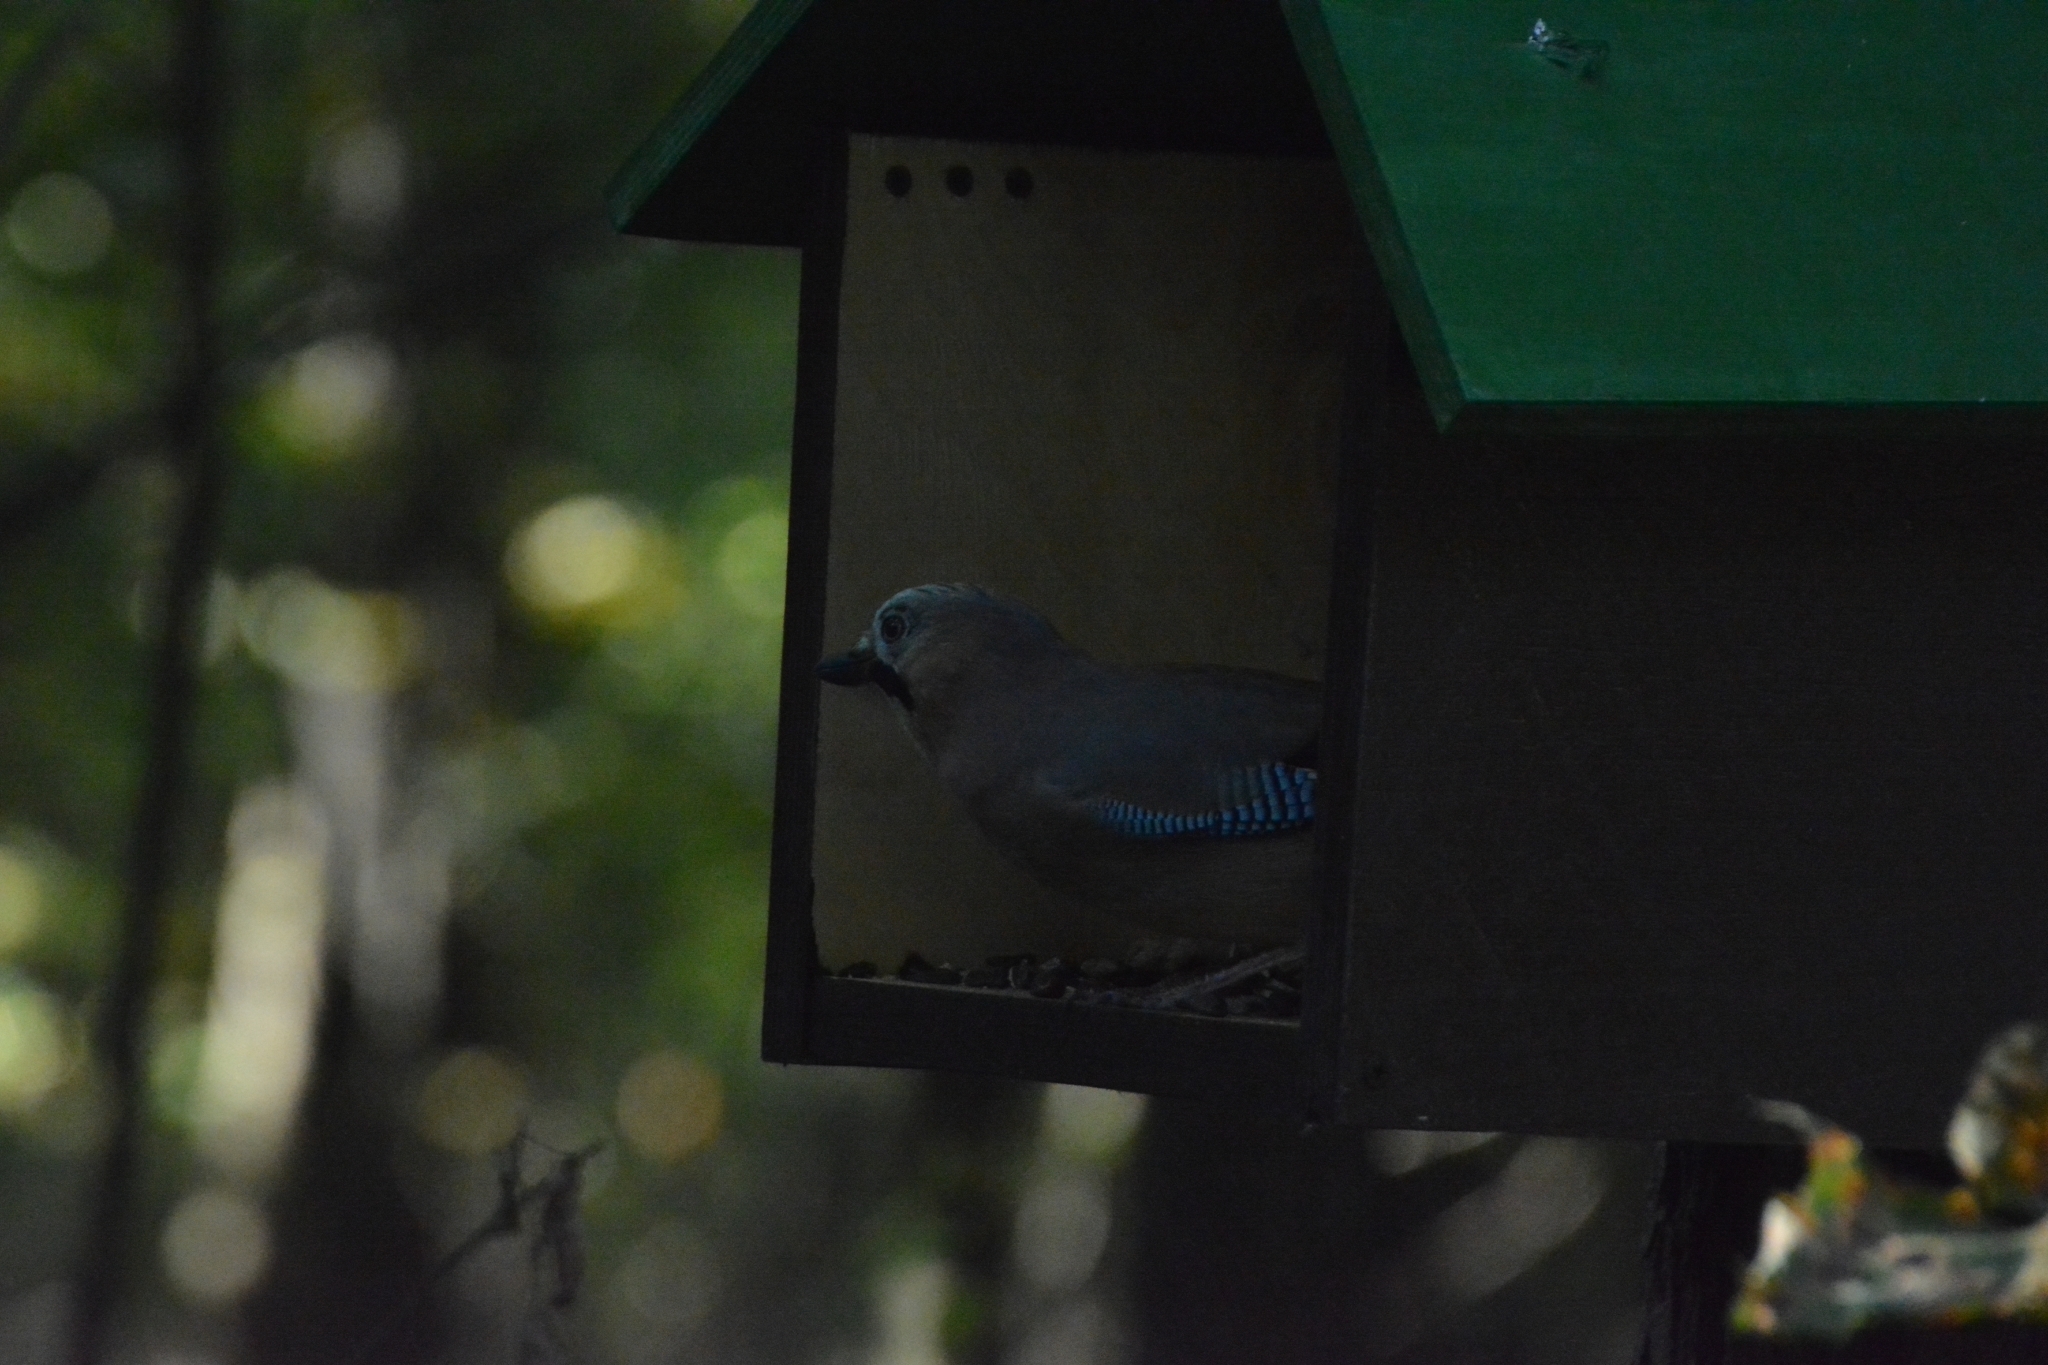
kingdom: Animalia
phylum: Chordata
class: Aves
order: Passeriformes
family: Corvidae
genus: Garrulus
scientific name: Garrulus glandarius
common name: Eurasian jay
